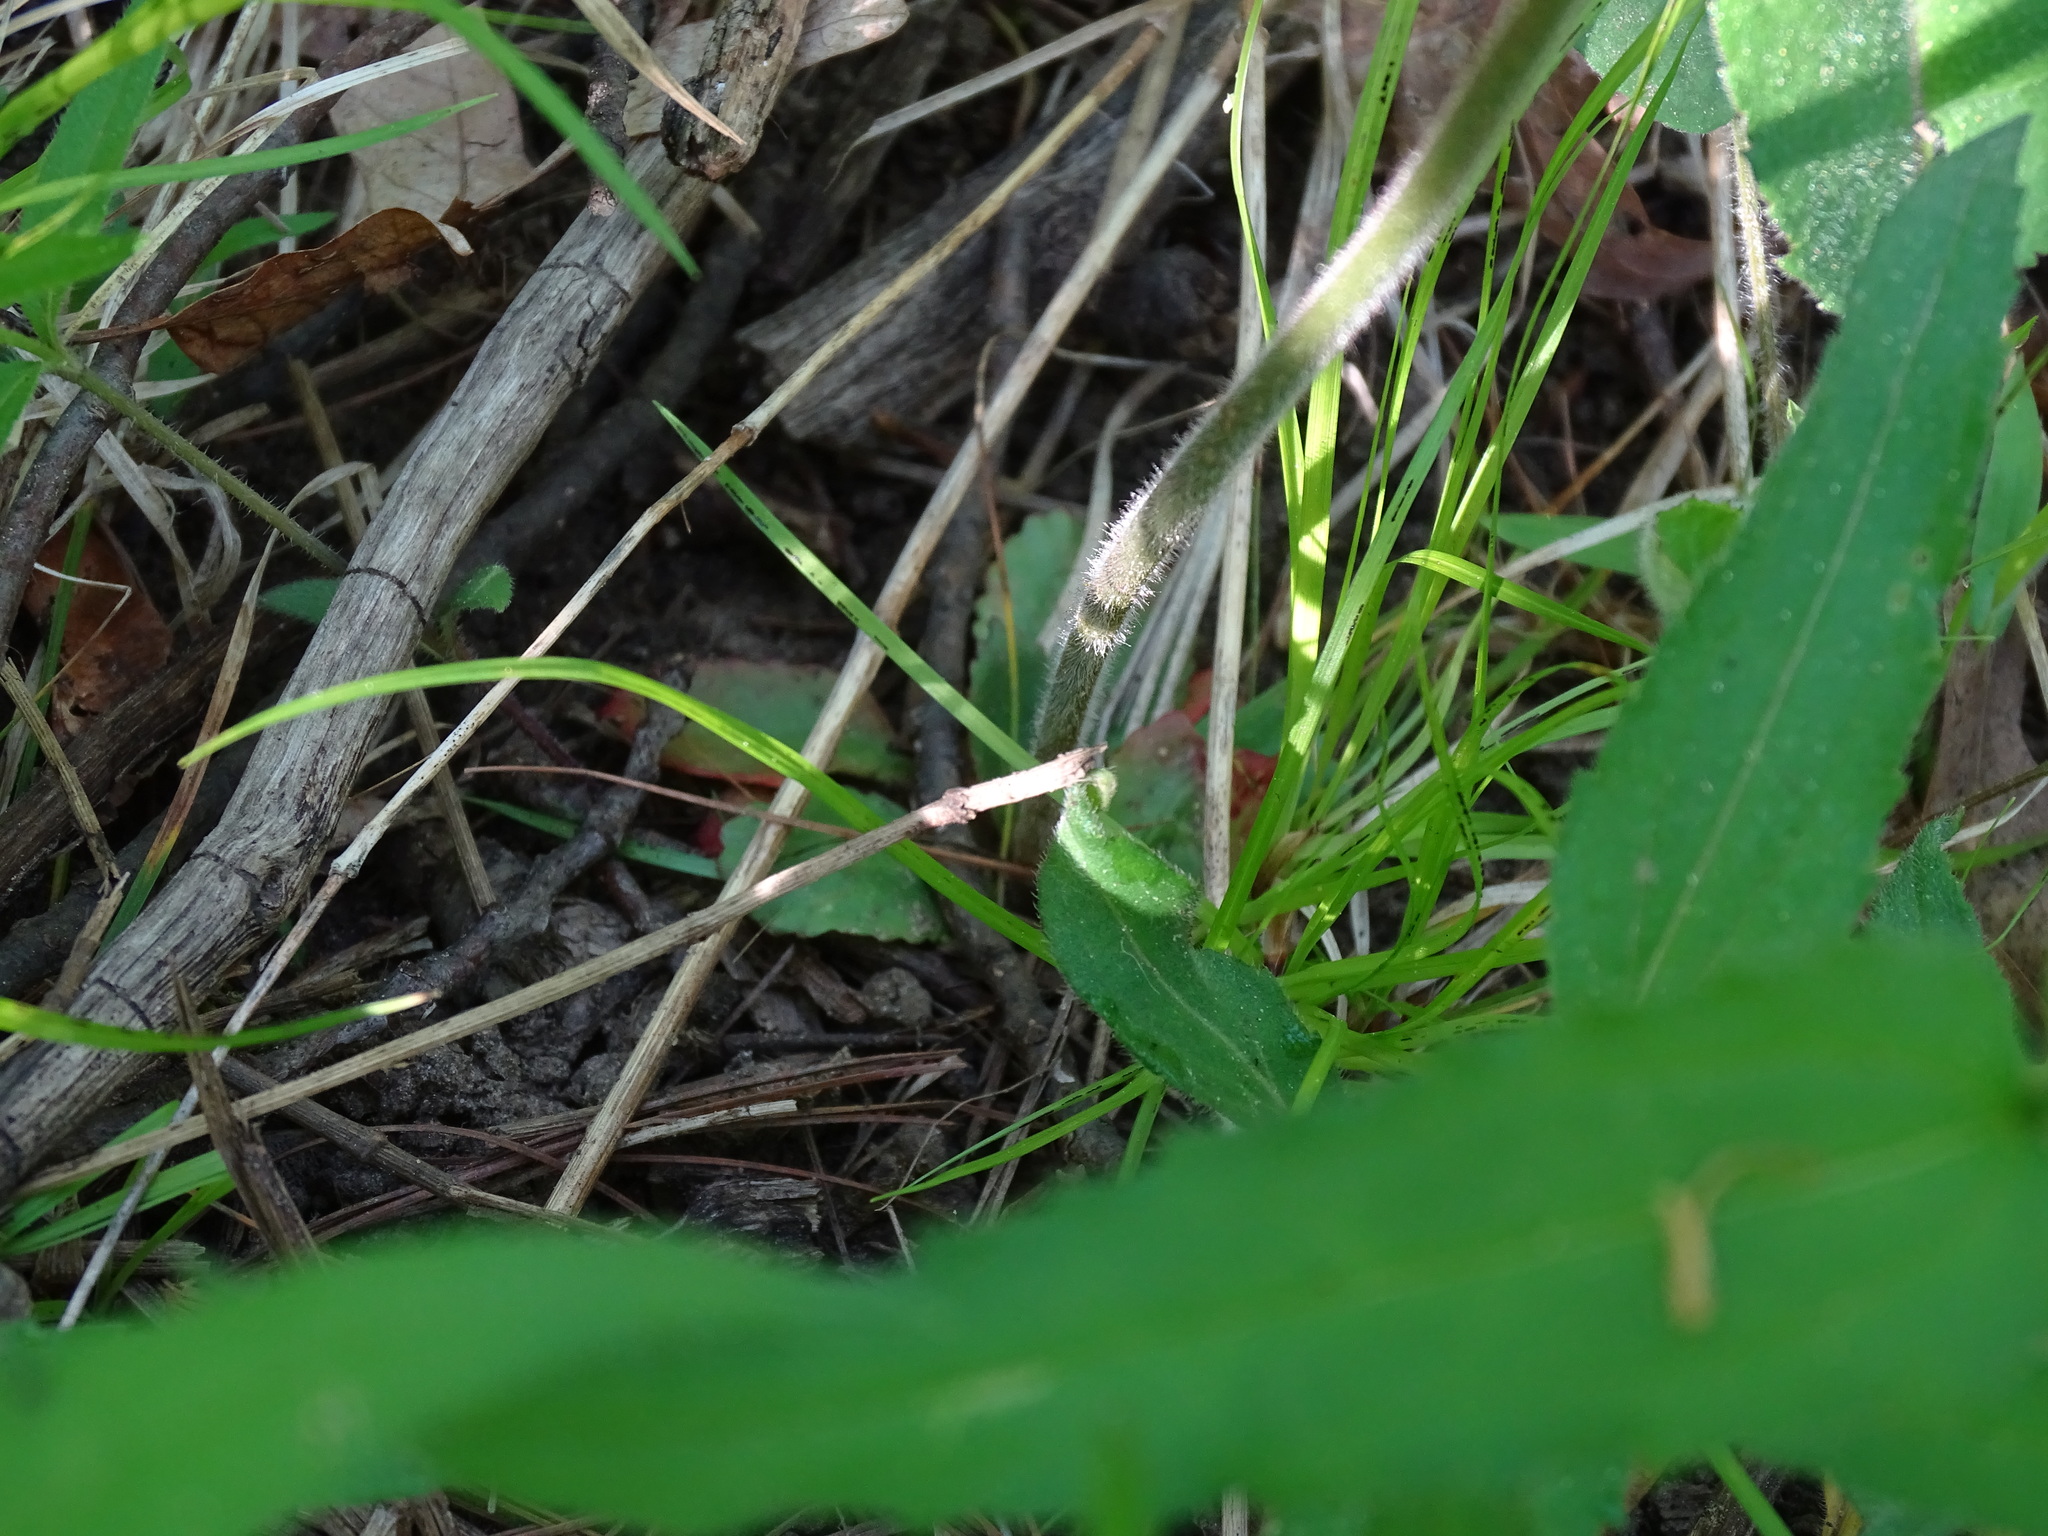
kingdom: Plantae
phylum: Tracheophyta
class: Magnoliopsida
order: Saxifragales
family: Saxifragaceae
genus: Micranthes
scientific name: Micranthes virginiensis
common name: Early saxifrage
